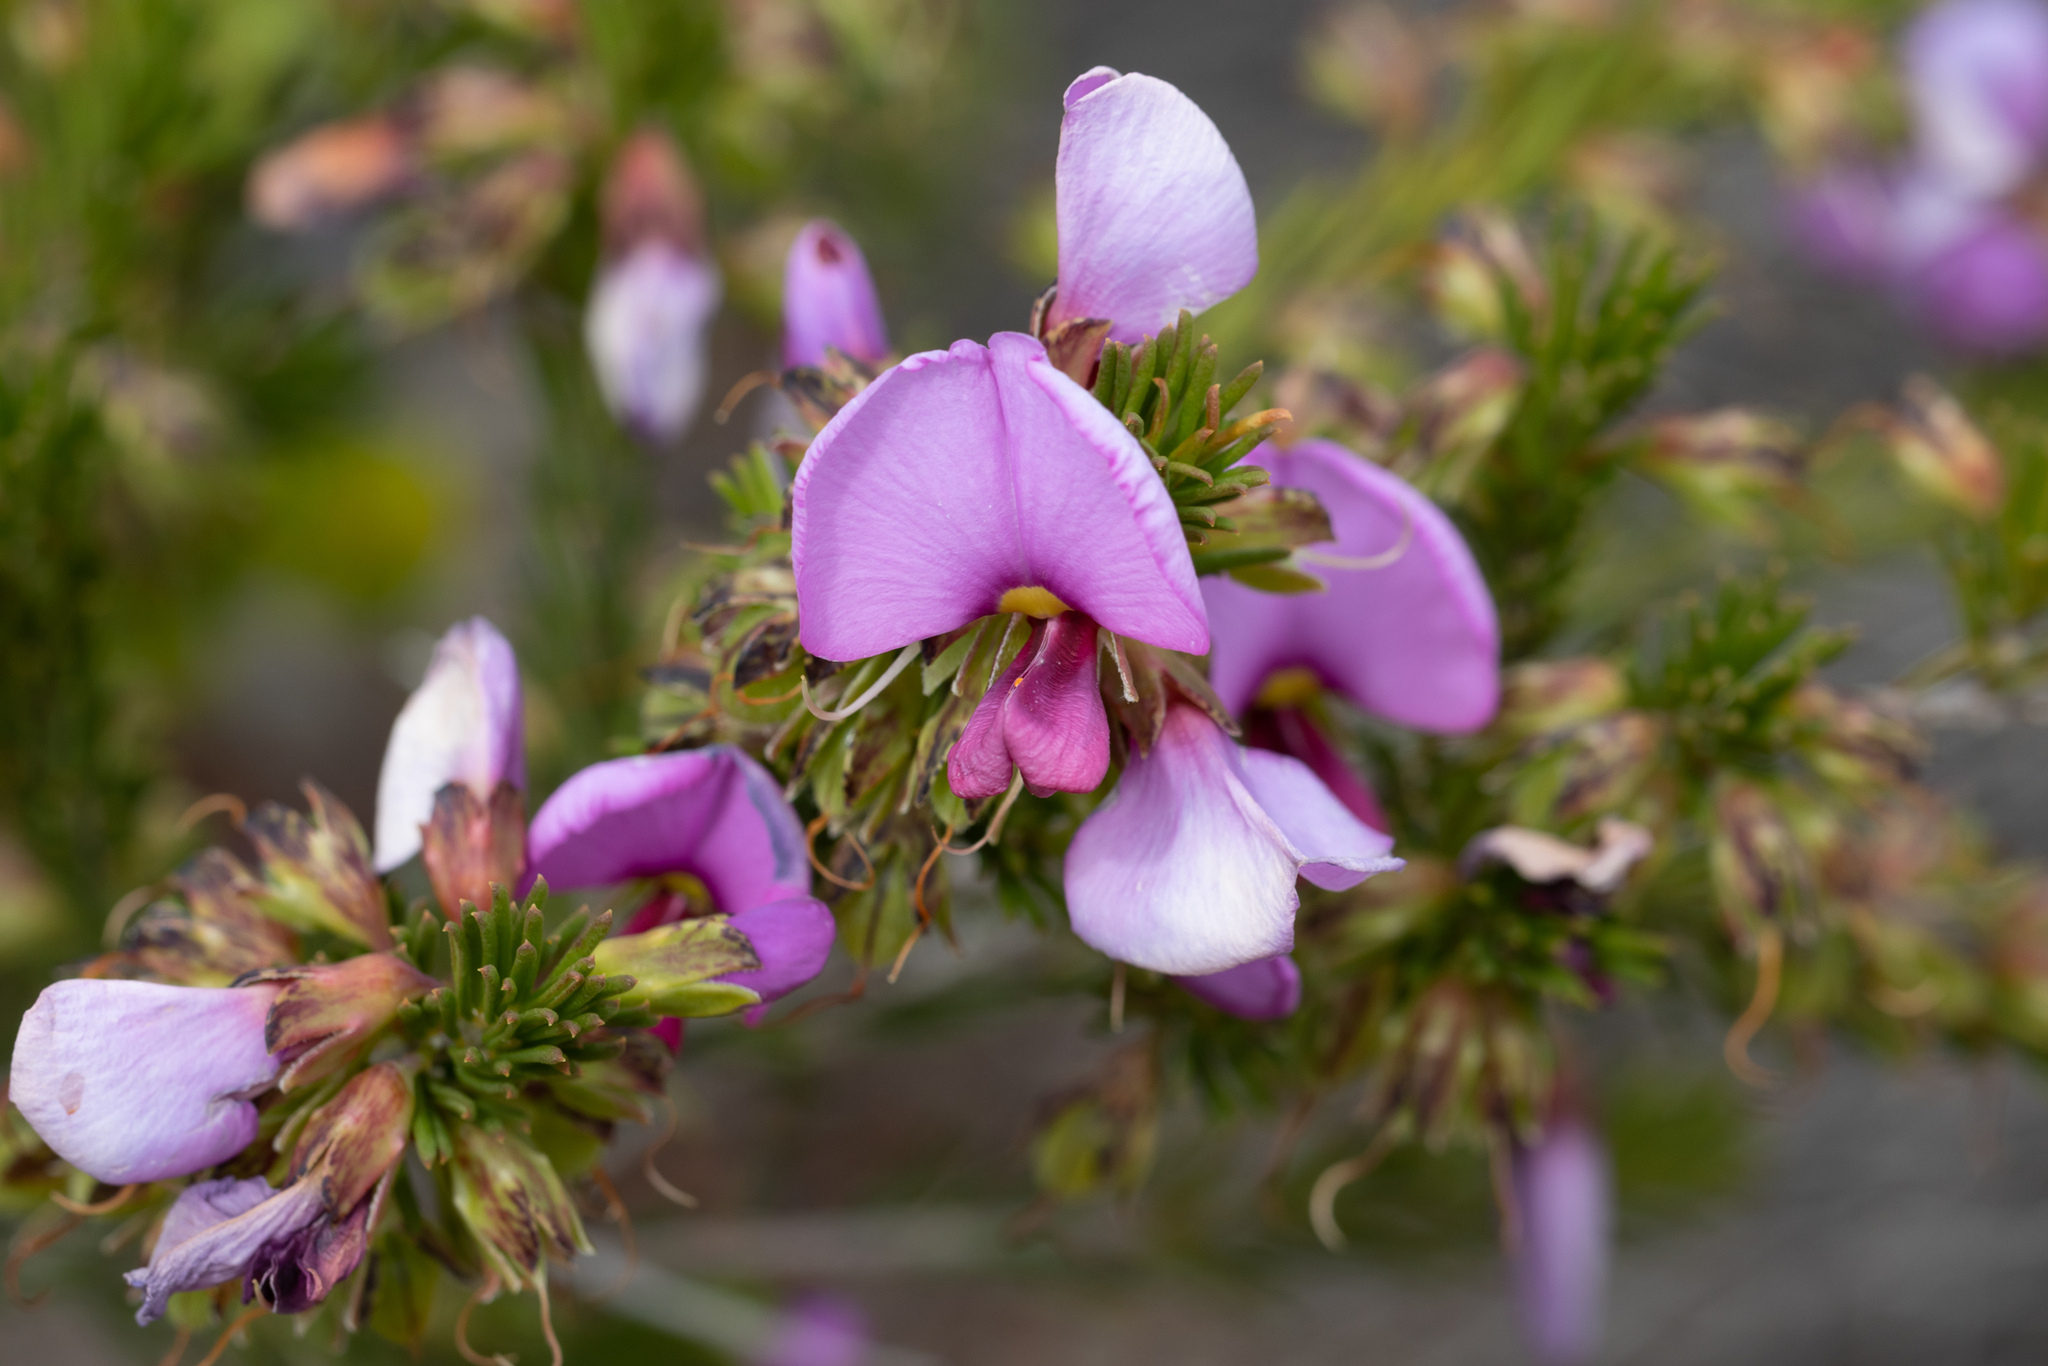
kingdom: Plantae
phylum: Tracheophyta
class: Magnoliopsida
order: Fabales
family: Fabaceae
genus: Gompholobium
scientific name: Gompholobium scabrum
